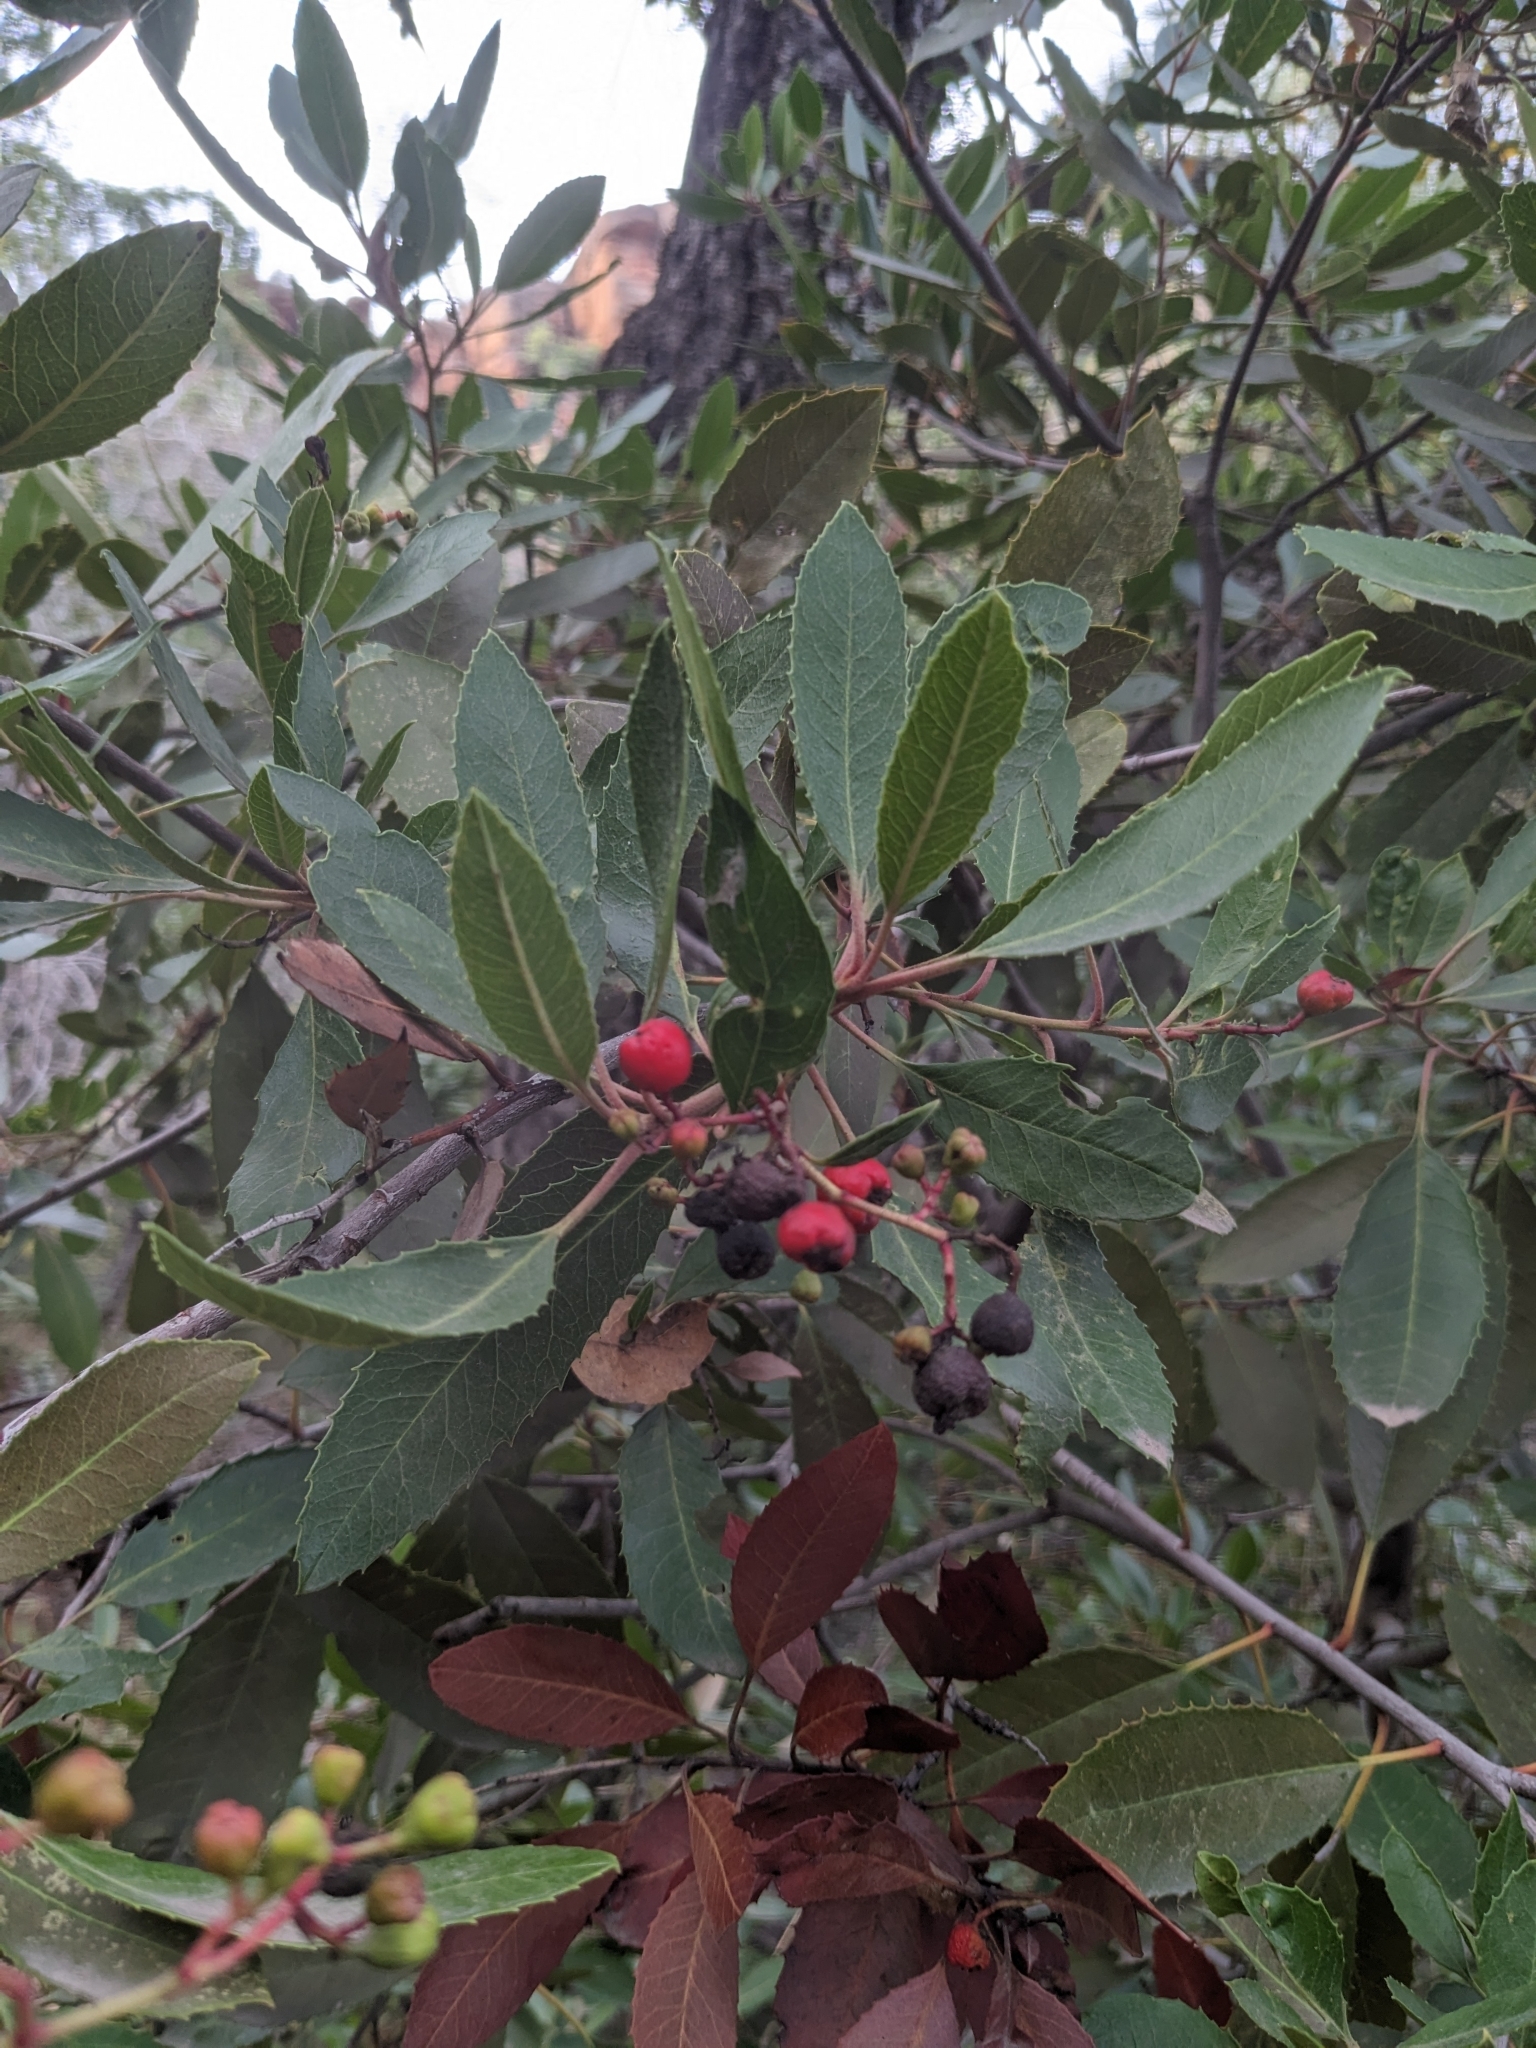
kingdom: Plantae
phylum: Tracheophyta
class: Magnoliopsida
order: Rosales
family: Rosaceae
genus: Heteromeles
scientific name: Heteromeles arbutifolia
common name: California-holly
